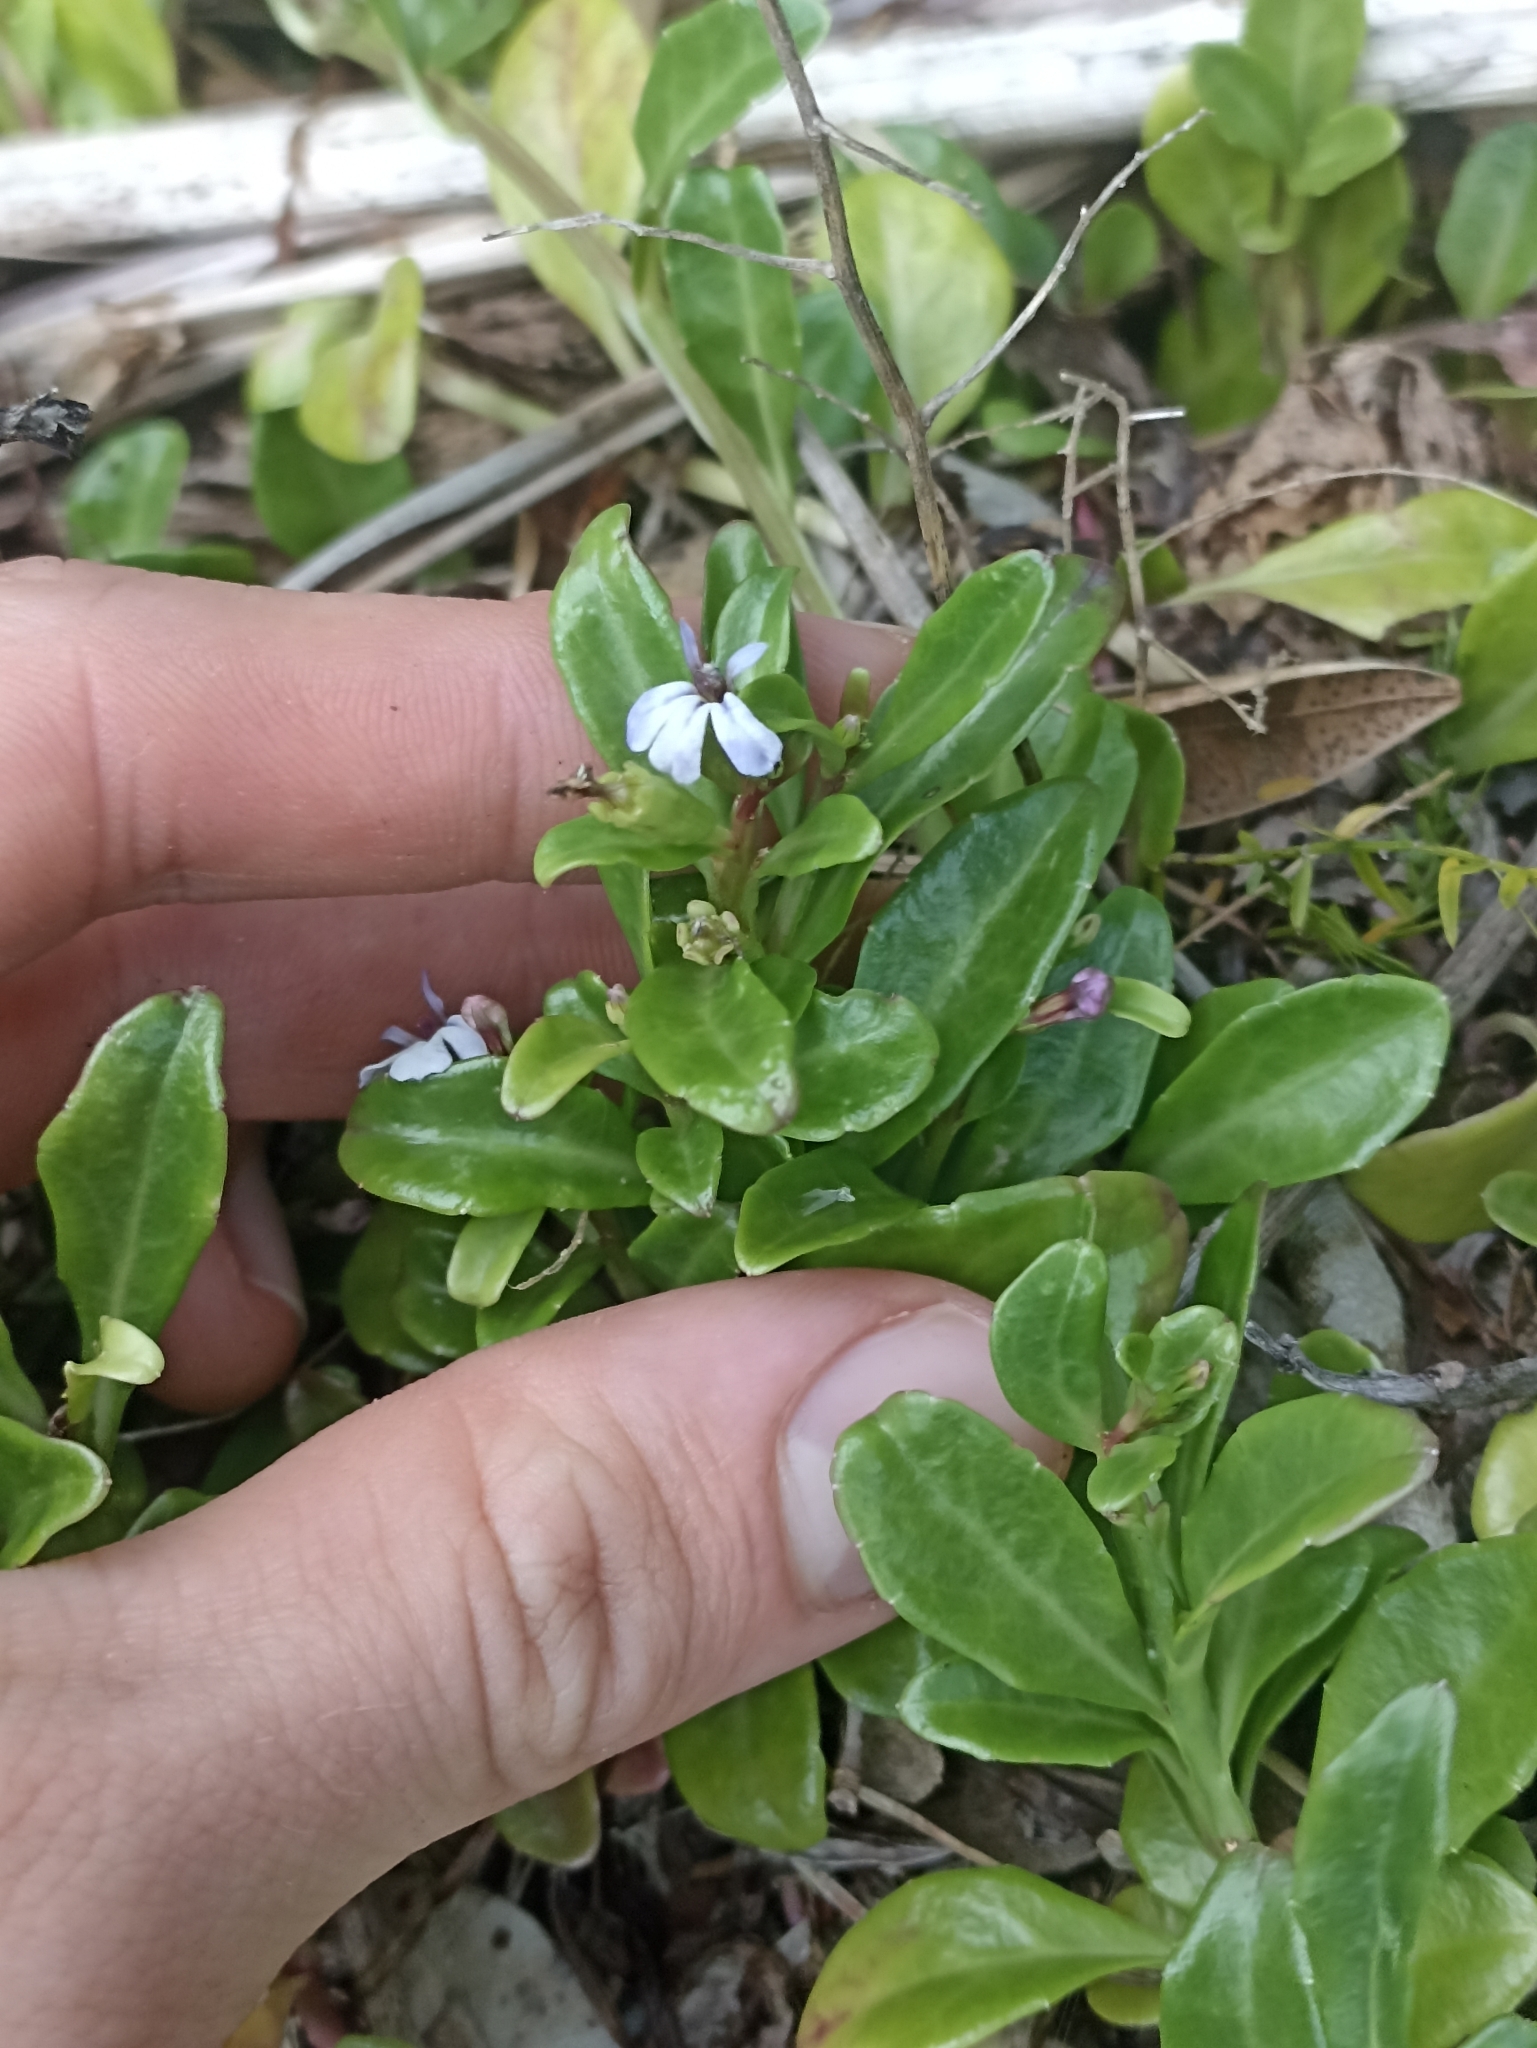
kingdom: Plantae
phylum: Tracheophyta
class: Magnoliopsida
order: Asterales
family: Campanulaceae
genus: Lobelia
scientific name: Lobelia anceps
